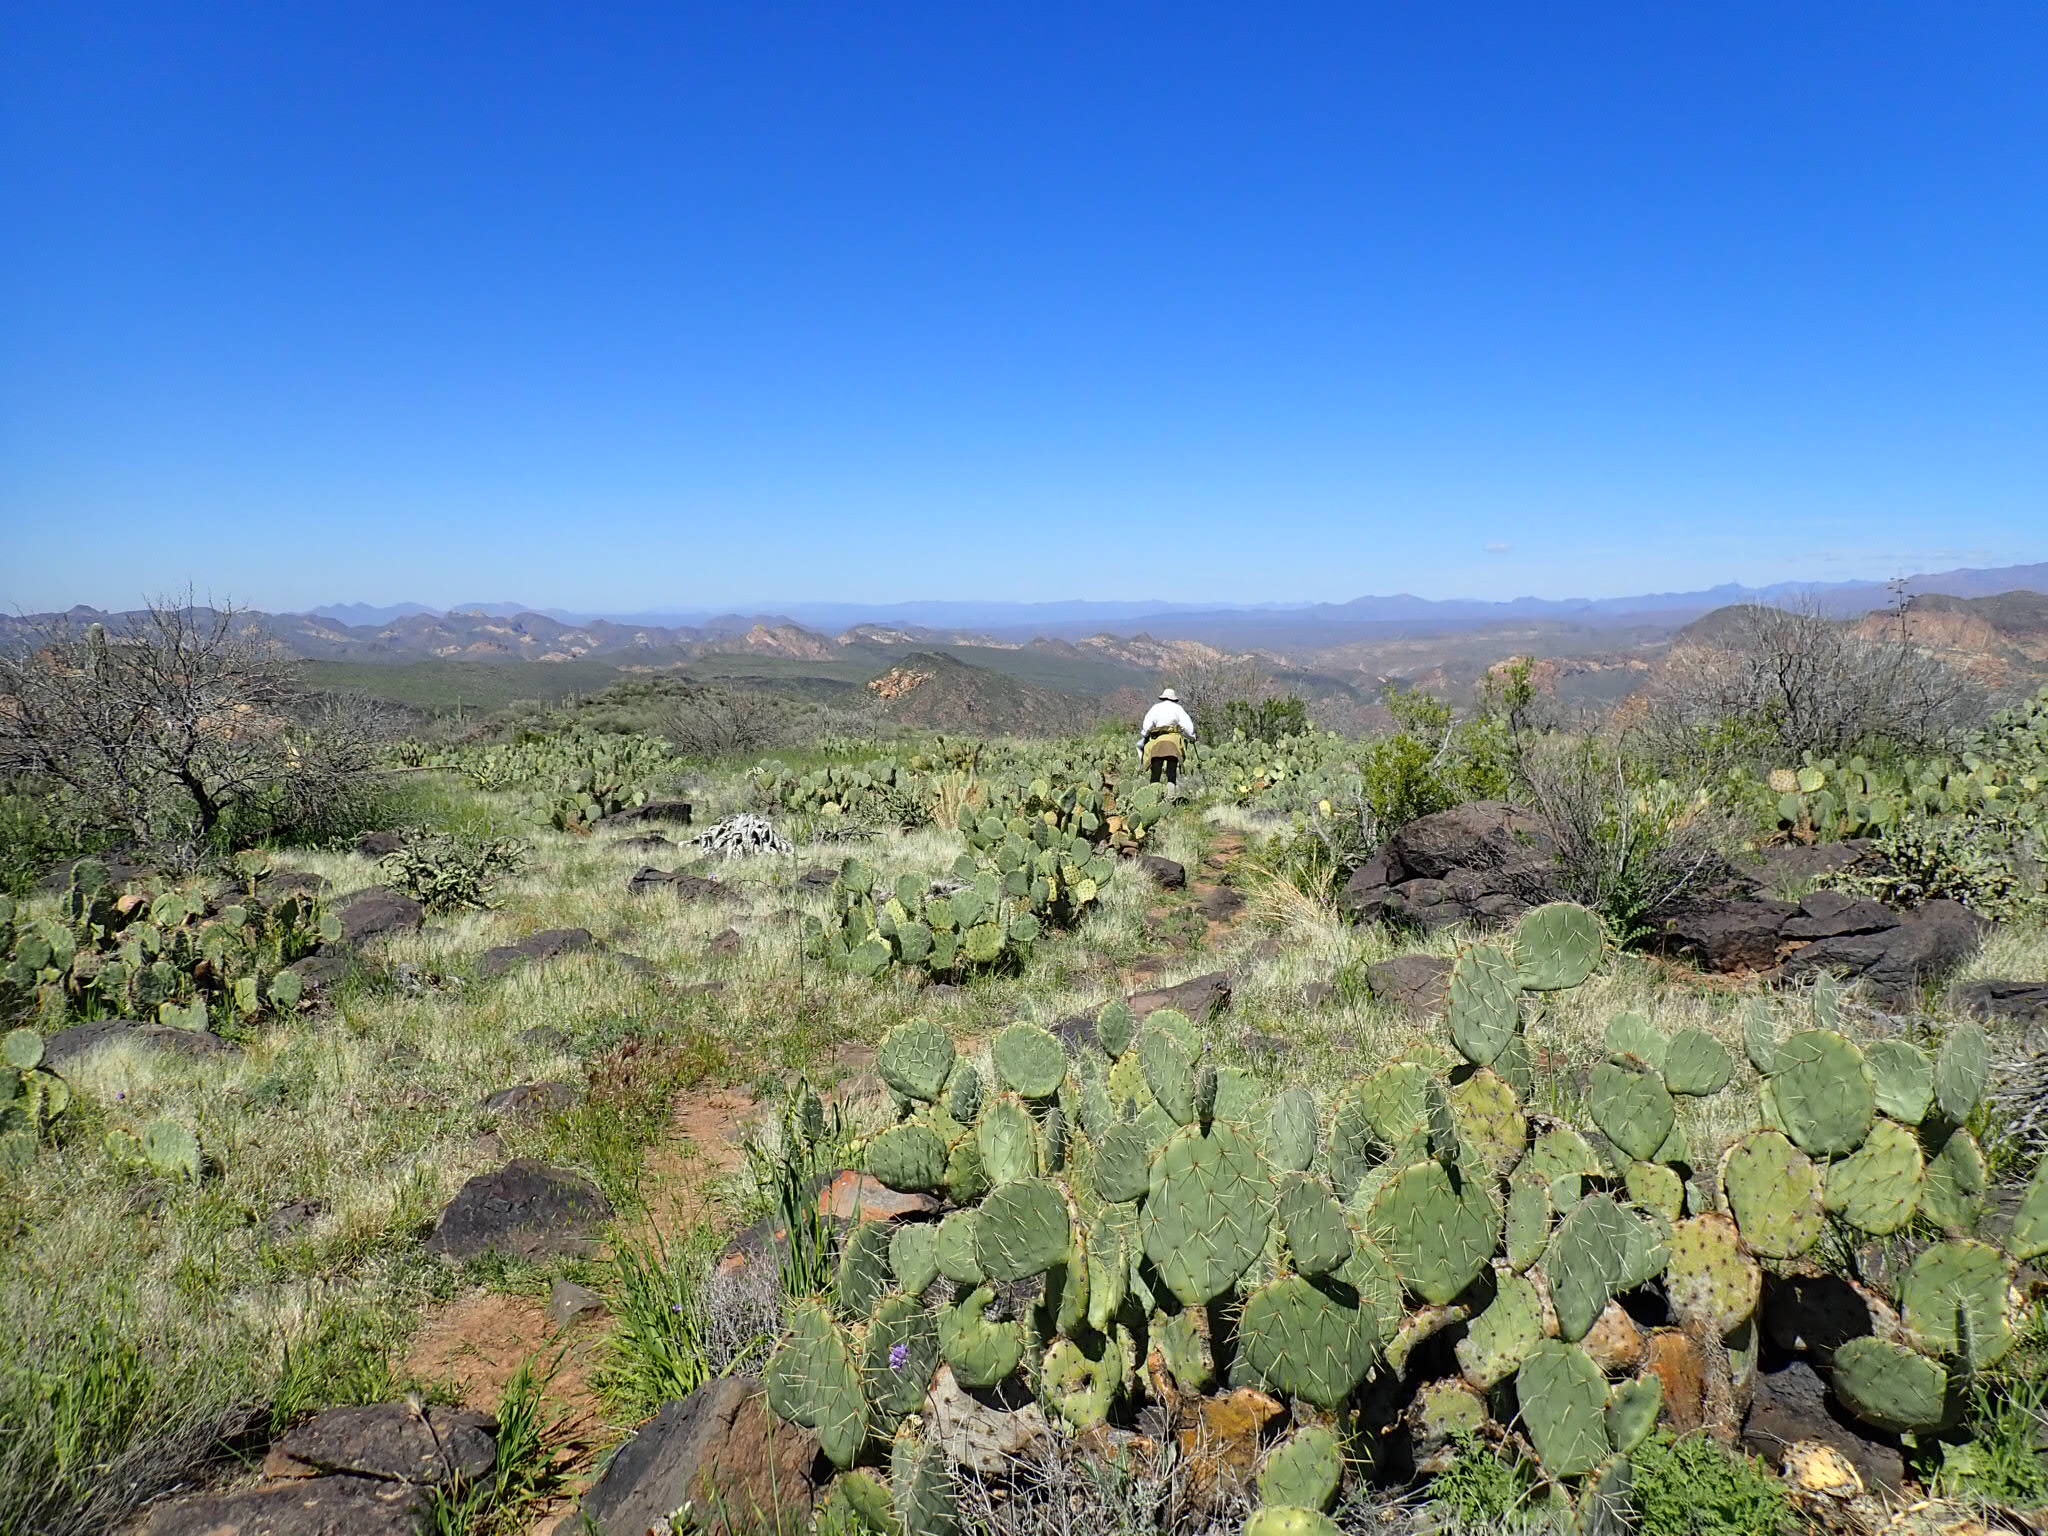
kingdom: Plantae
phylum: Tracheophyta
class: Magnoliopsida
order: Caryophyllales
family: Cactaceae
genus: Opuntia
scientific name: Opuntia engelmannii
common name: Cactus-apple
